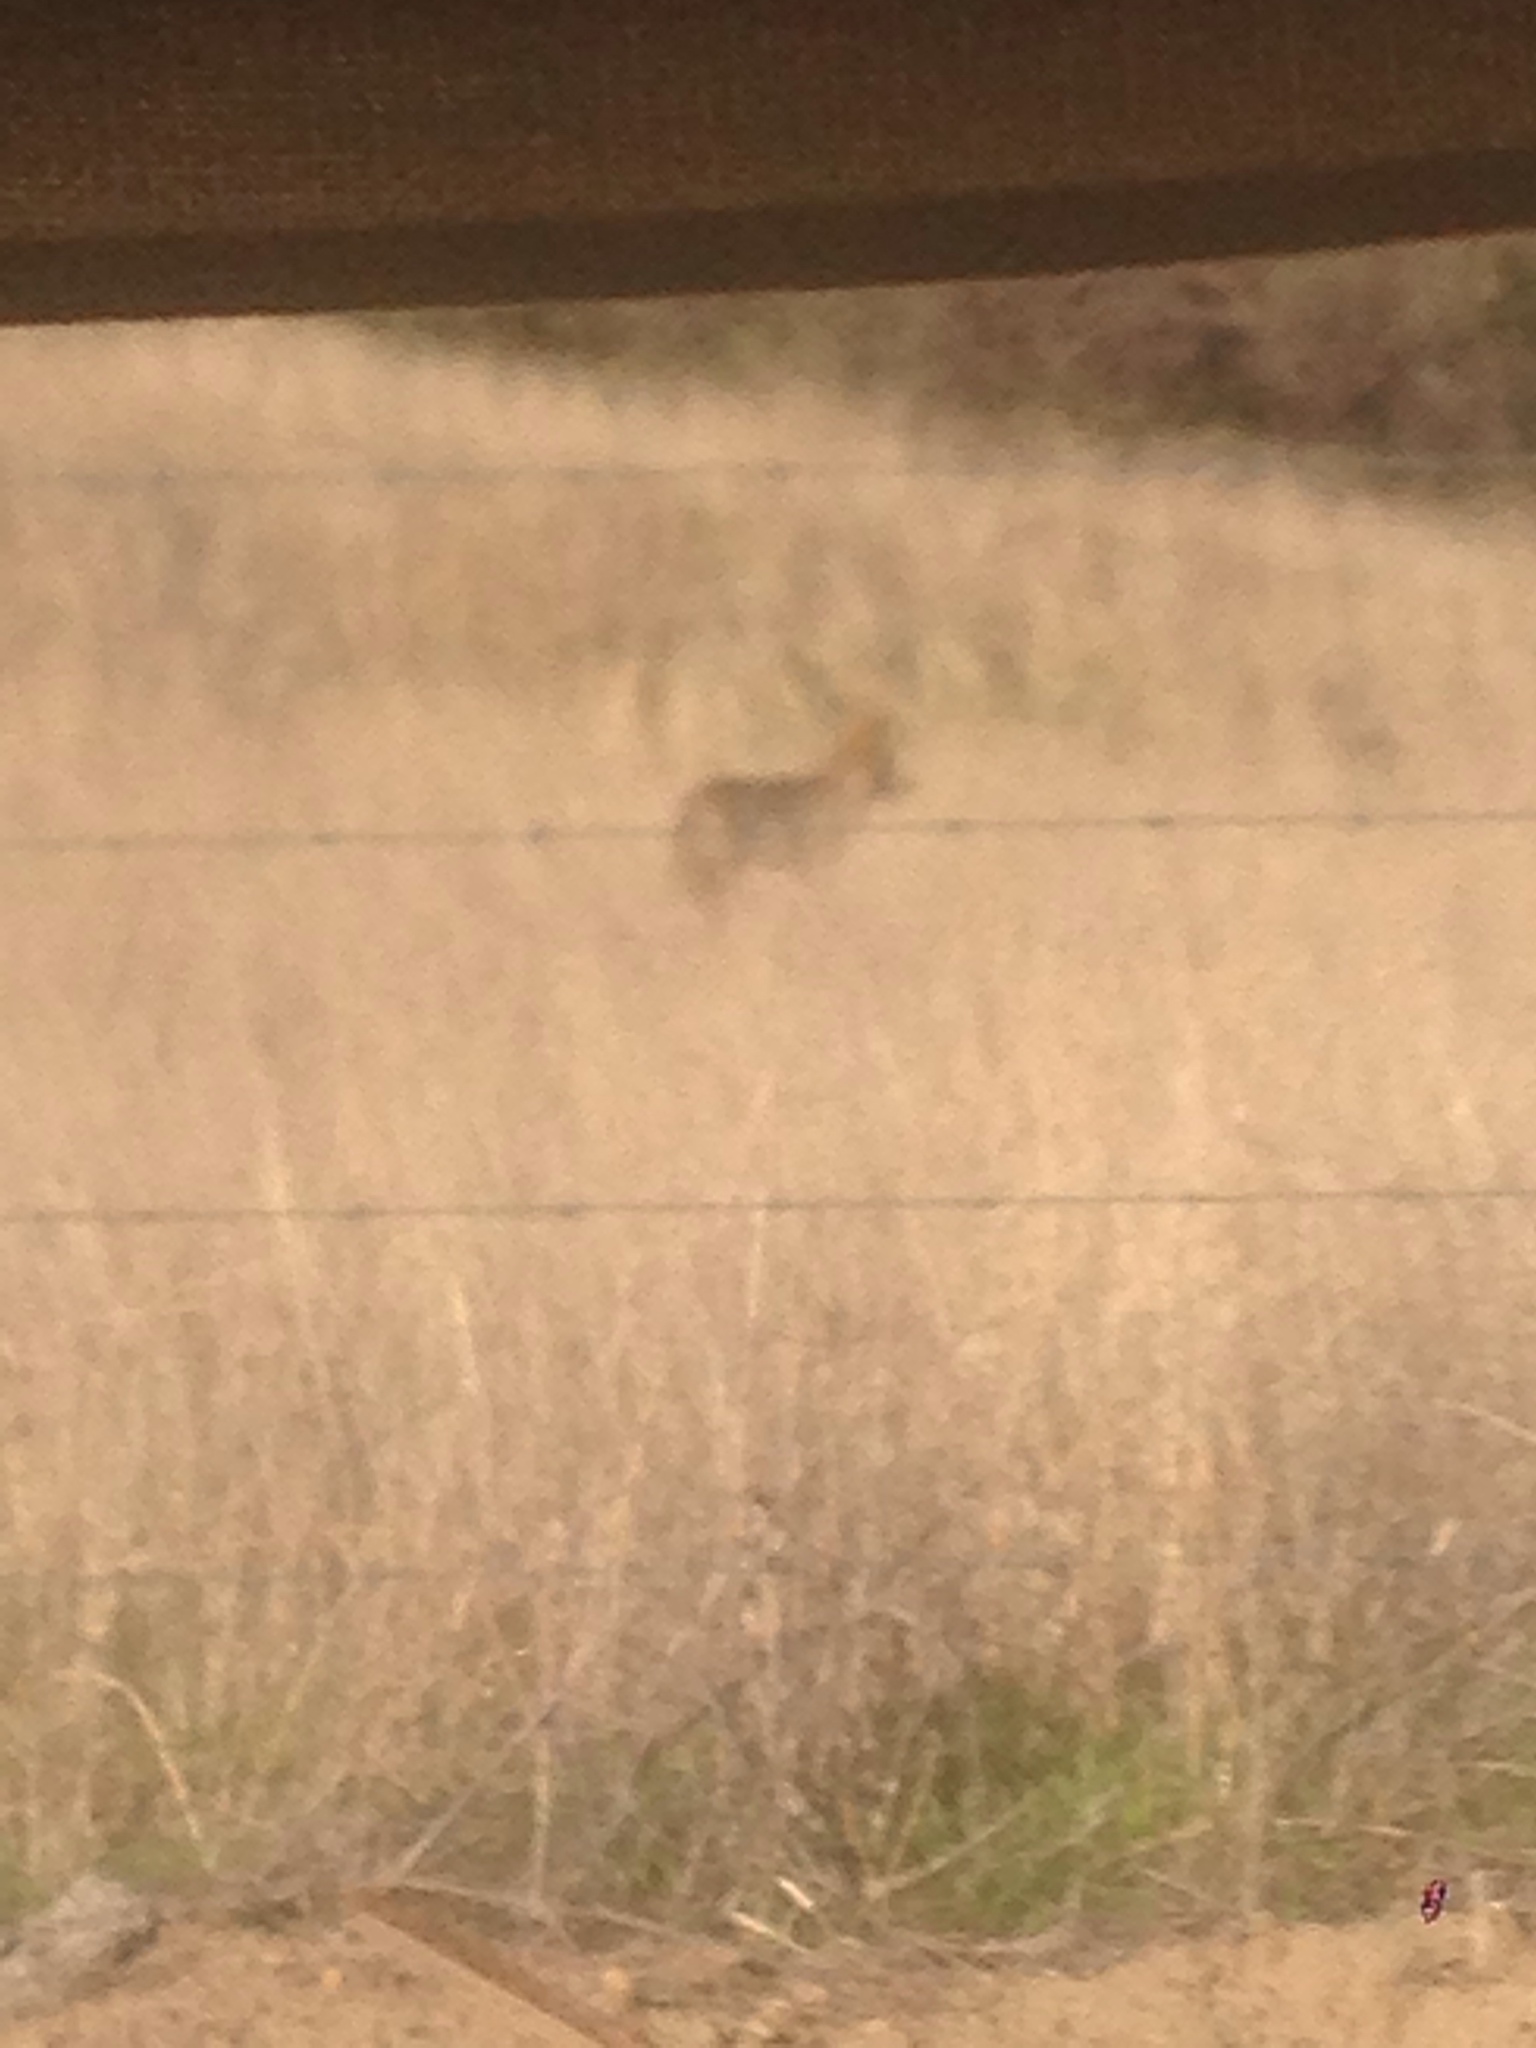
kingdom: Animalia
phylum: Chordata
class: Mammalia
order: Carnivora
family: Canidae
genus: Canis
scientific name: Canis latrans
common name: Coyote
